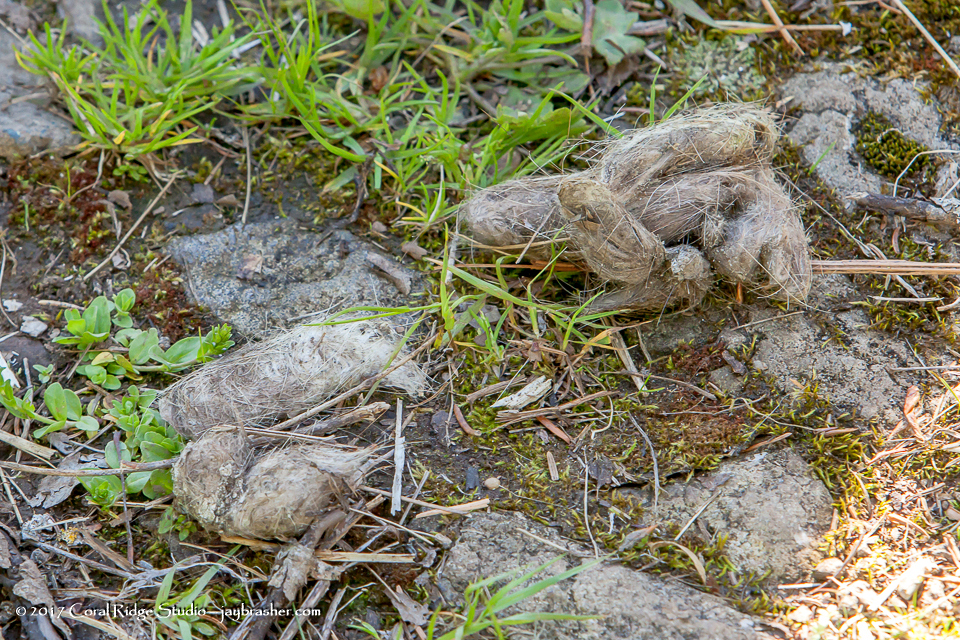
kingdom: Animalia
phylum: Chordata
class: Mammalia
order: Carnivora
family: Canidae
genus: Canis
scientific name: Canis lupus
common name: Gray wolf
